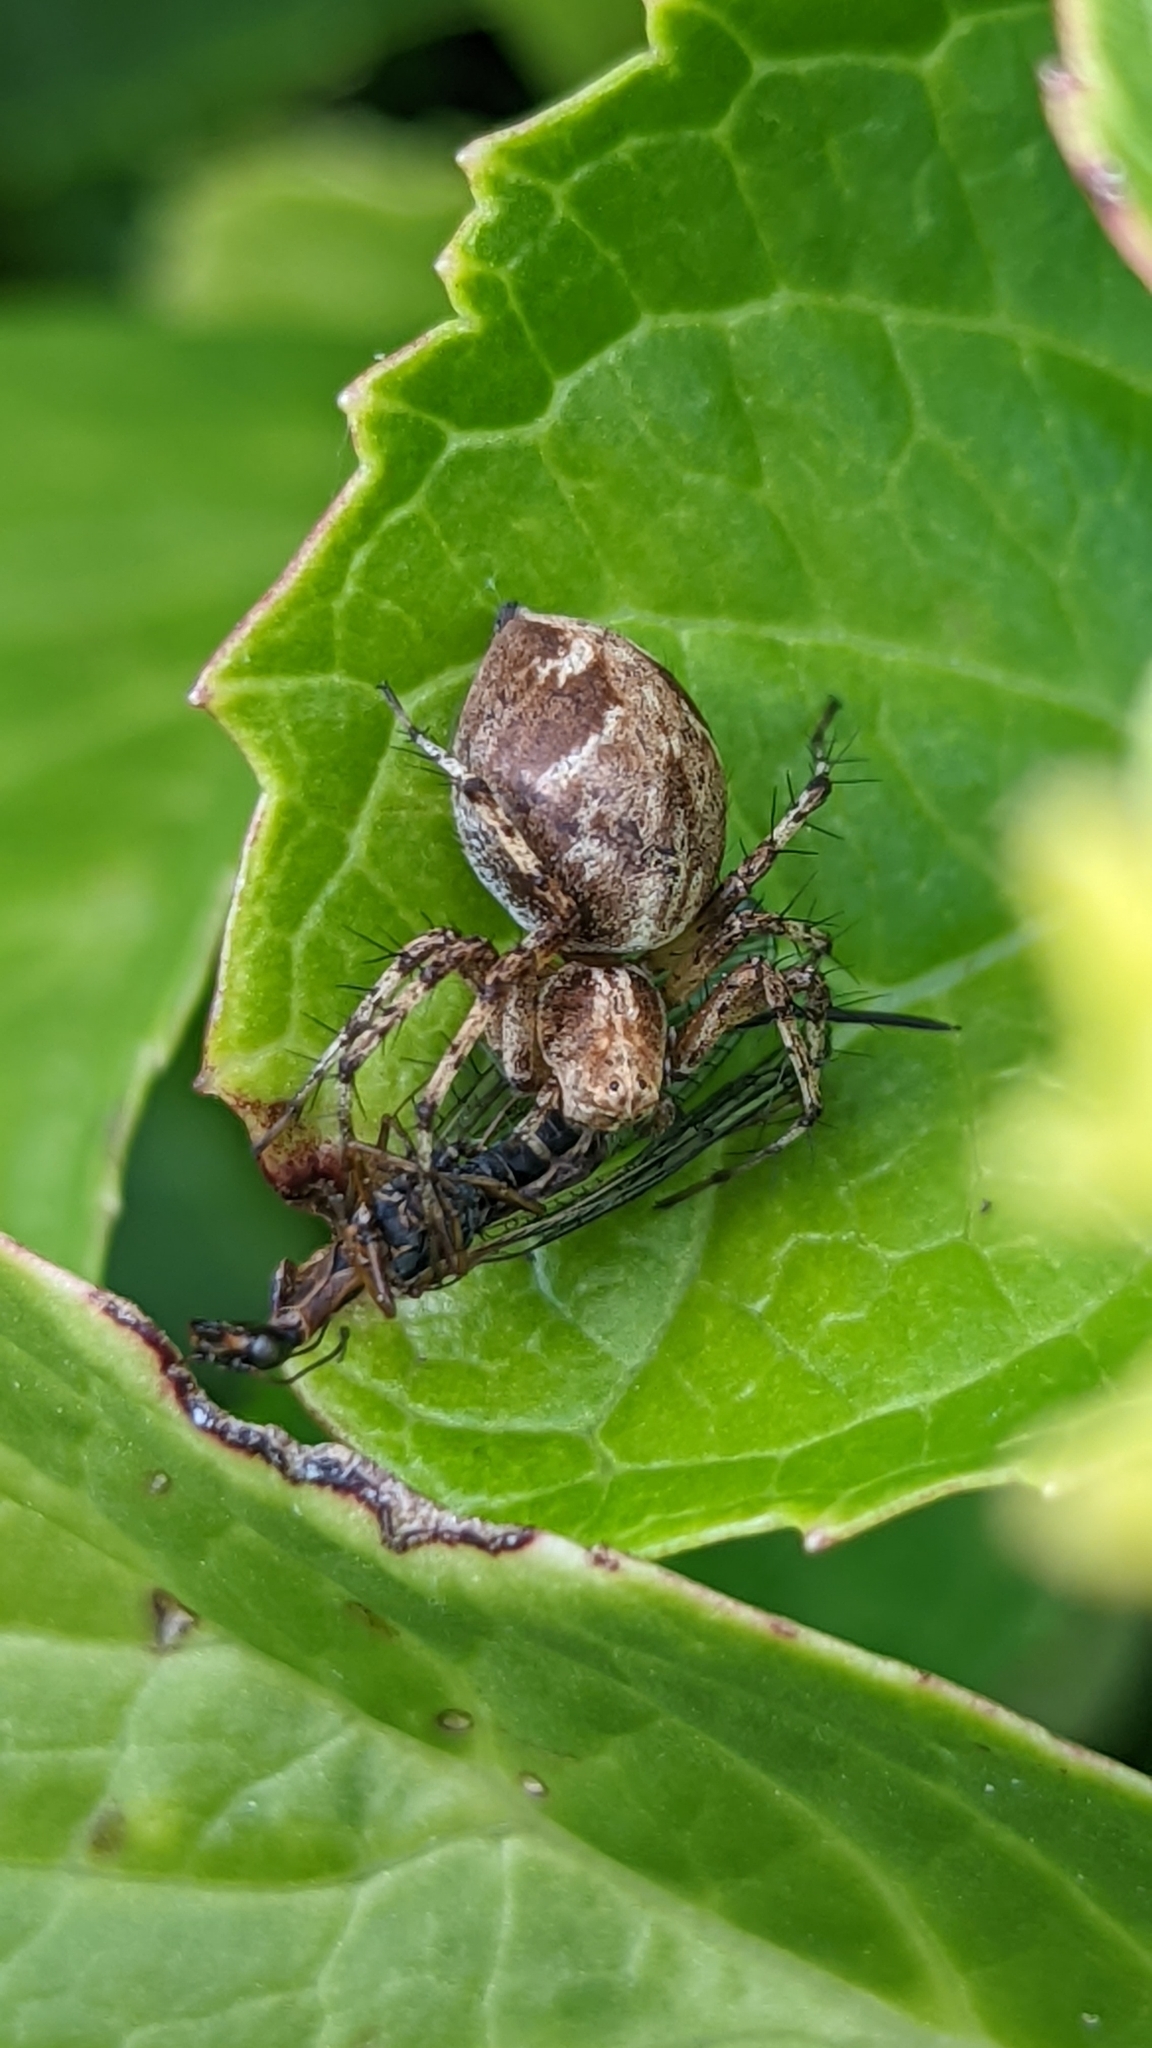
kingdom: Animalia
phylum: Arthropoda
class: Arachnida
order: Araneae
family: Oxyopidae
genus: Oxyopes
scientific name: Oxyopes scalaris
